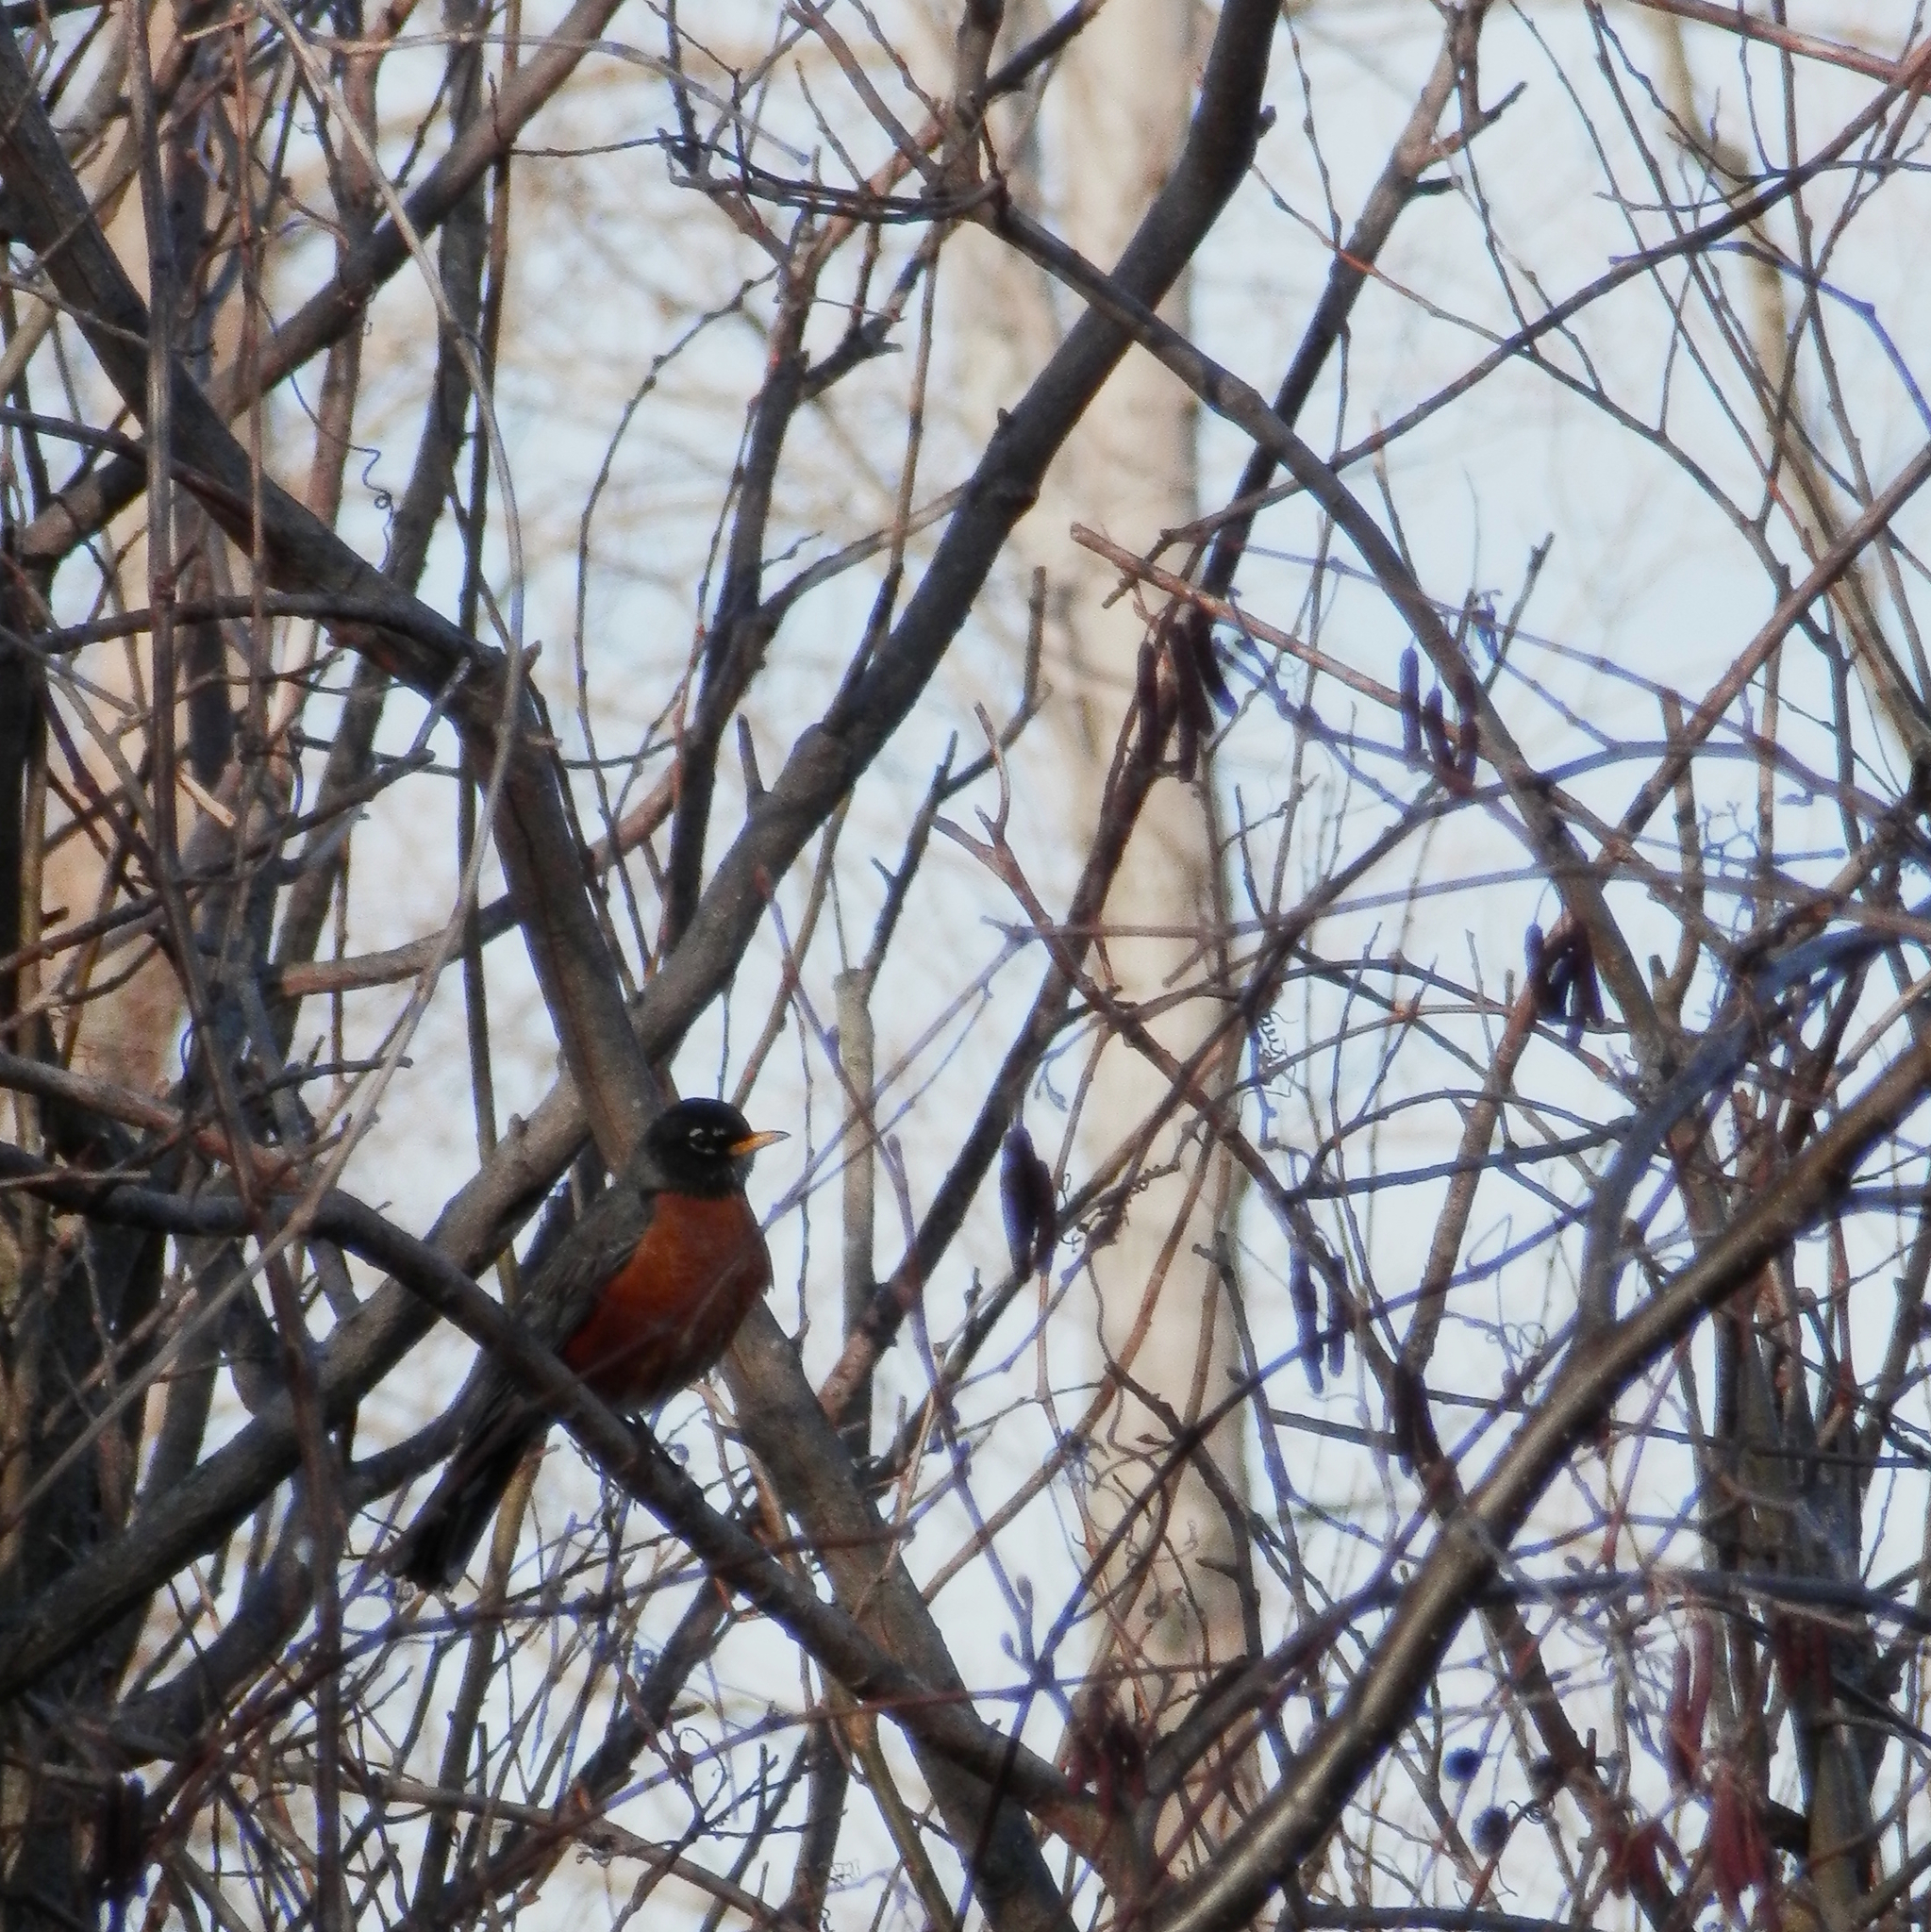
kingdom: Animalia
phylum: Chordata
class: Aves
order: Passeriformes
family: Turdidae
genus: Turdus
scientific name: Turdus migratorius
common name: American robin
